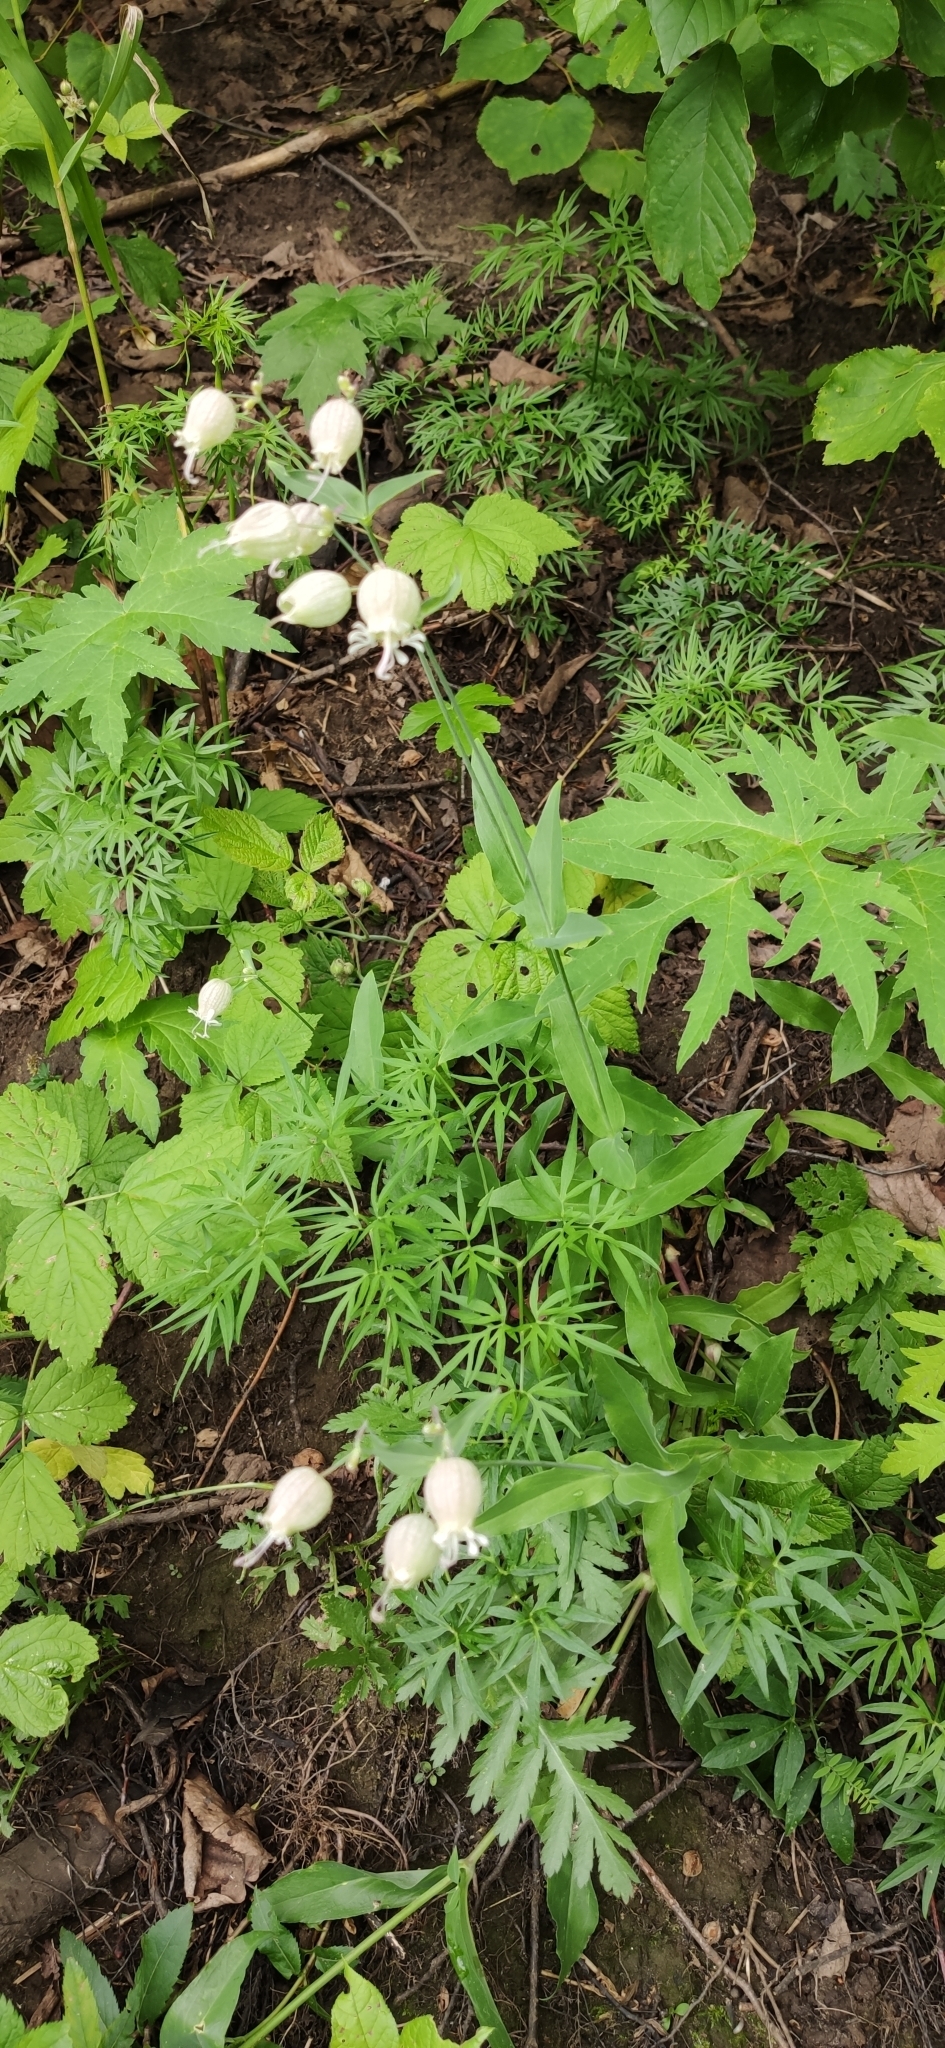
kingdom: Plantae
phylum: Tracheophyta
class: Magnoliopsida
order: Caryophyllales
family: Caryophyllaceae
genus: Silene
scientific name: Silene vulgaris
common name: Bladder campion
